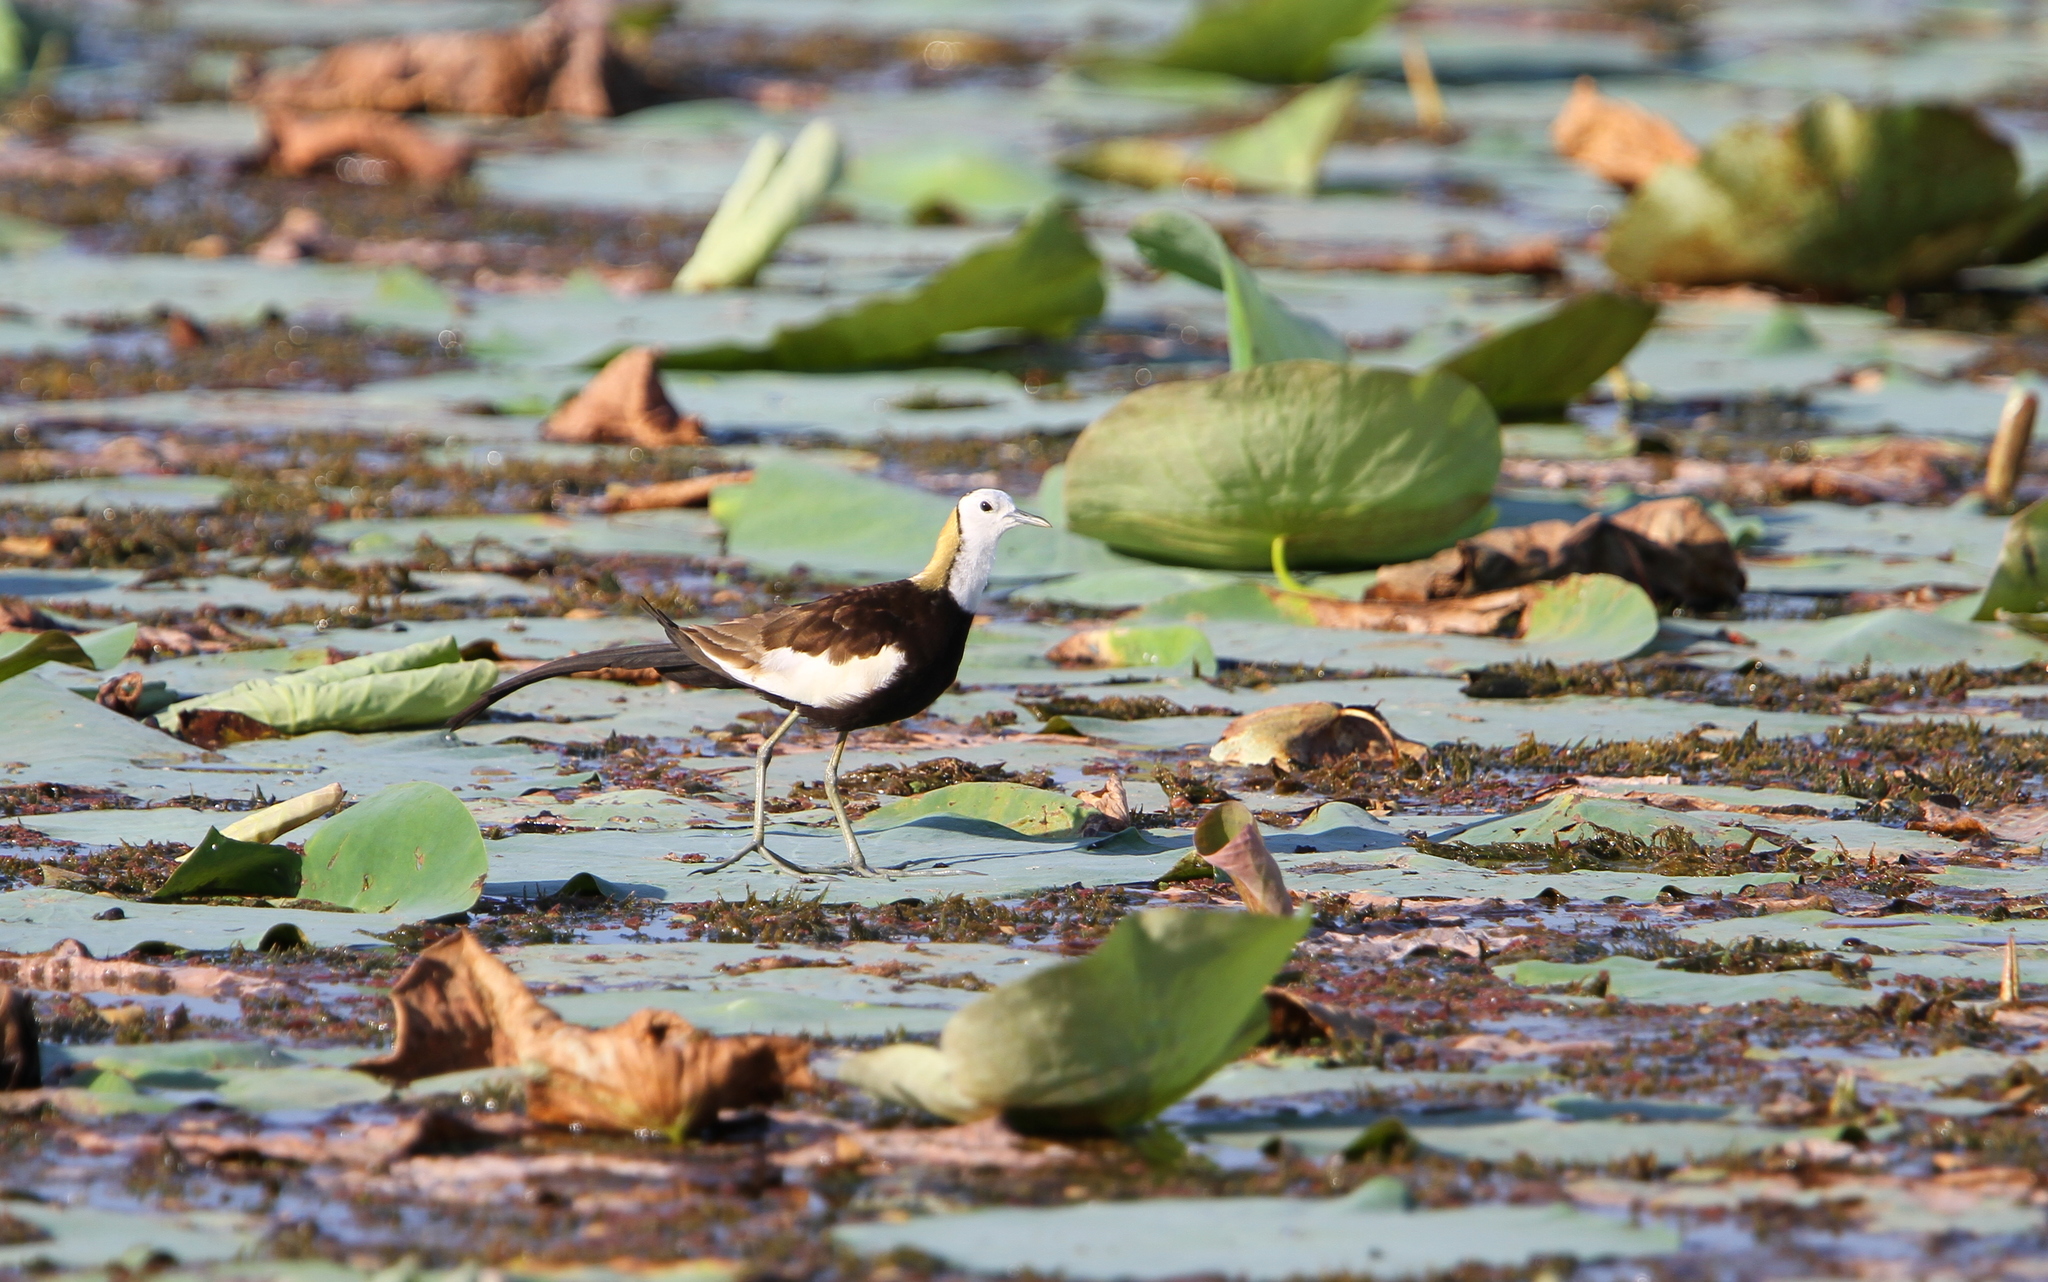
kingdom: Animalia
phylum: Chordata
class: Aves
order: Charadriiformes
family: Jacanidae
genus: Hydrophasianus
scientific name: Hydrophasianus chirurgus
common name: Pheasant-tailed jacana
